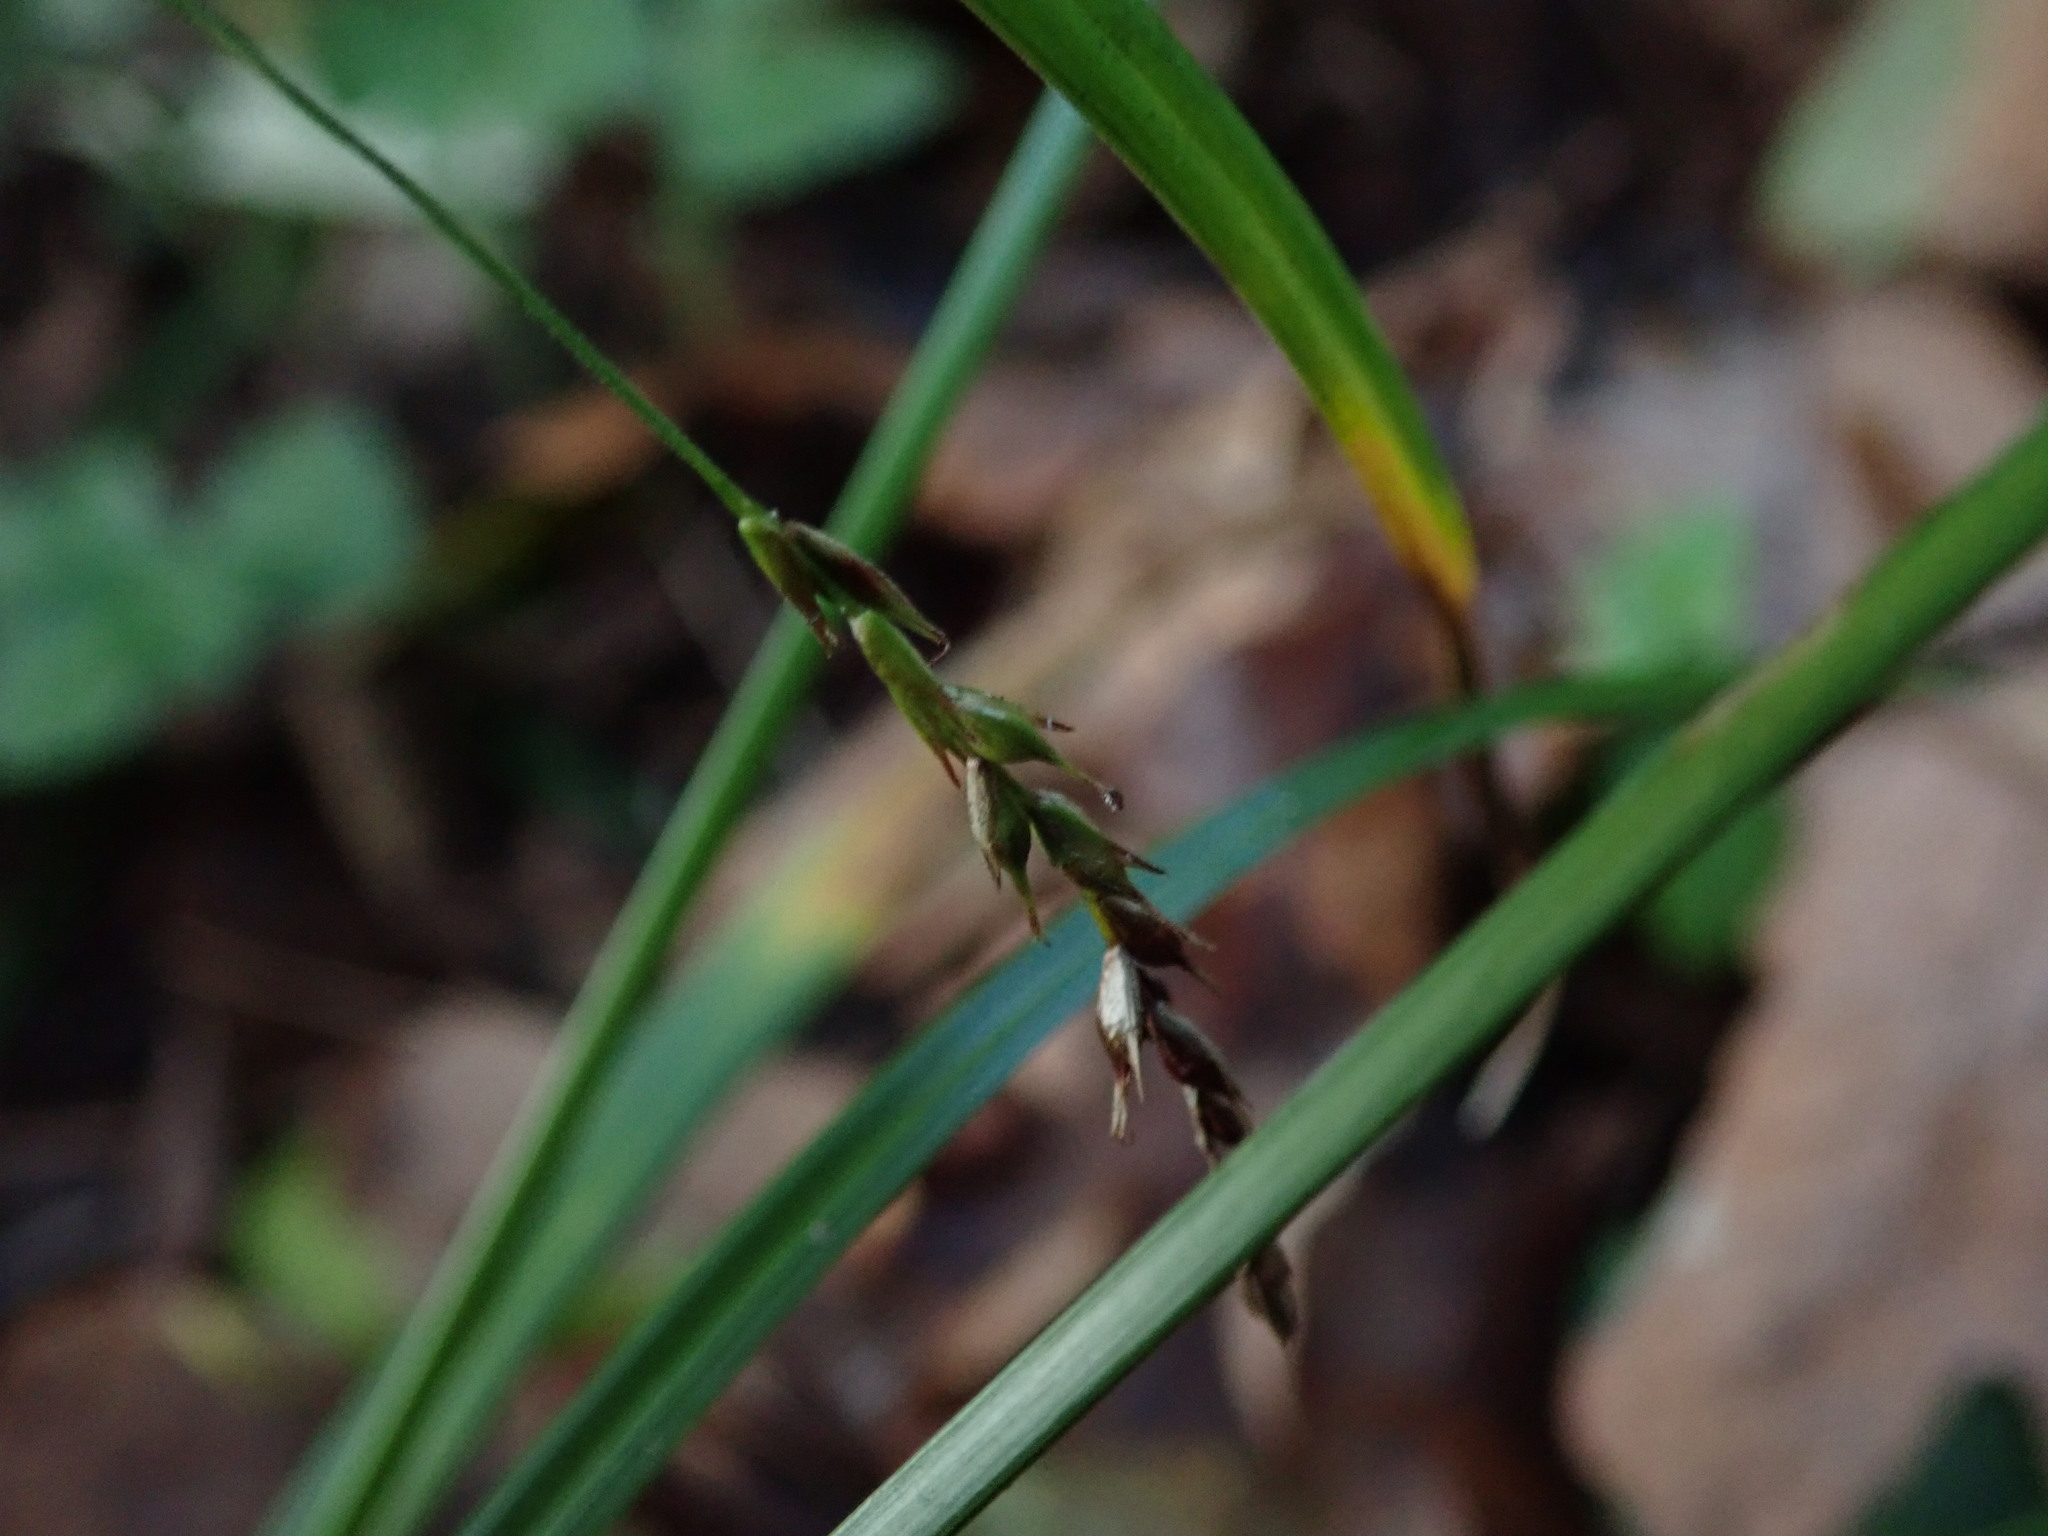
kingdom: Plantae
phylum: Tracheophyta
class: Liliopsida
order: Poales
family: Cyperaceae
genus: Carex
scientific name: Carex sylvatica
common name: Wood-sedge
